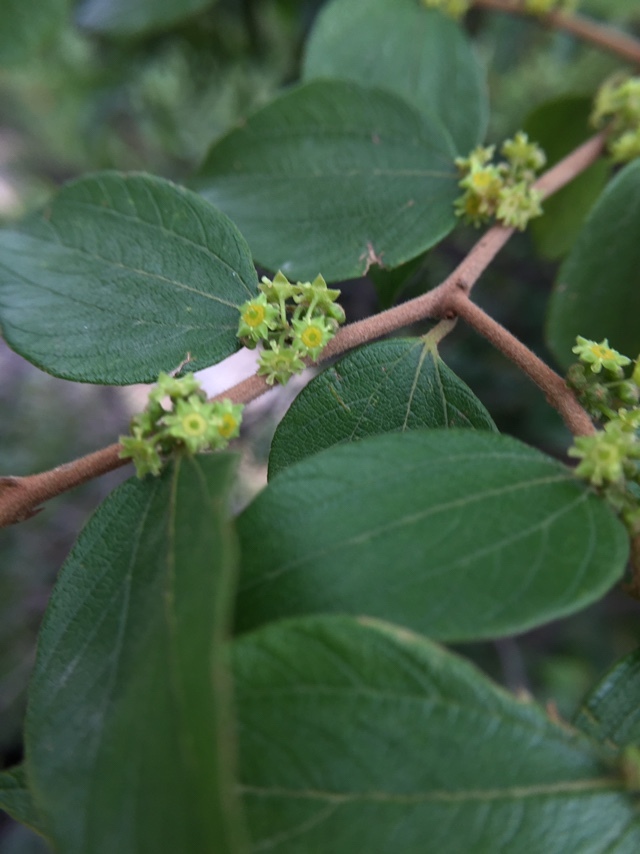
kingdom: Plantae
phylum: Tracheophyta
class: Magnoliopsida
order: Rosales
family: Rhamnaceae
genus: Ziziphus
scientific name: Ziziphus oenopolia
